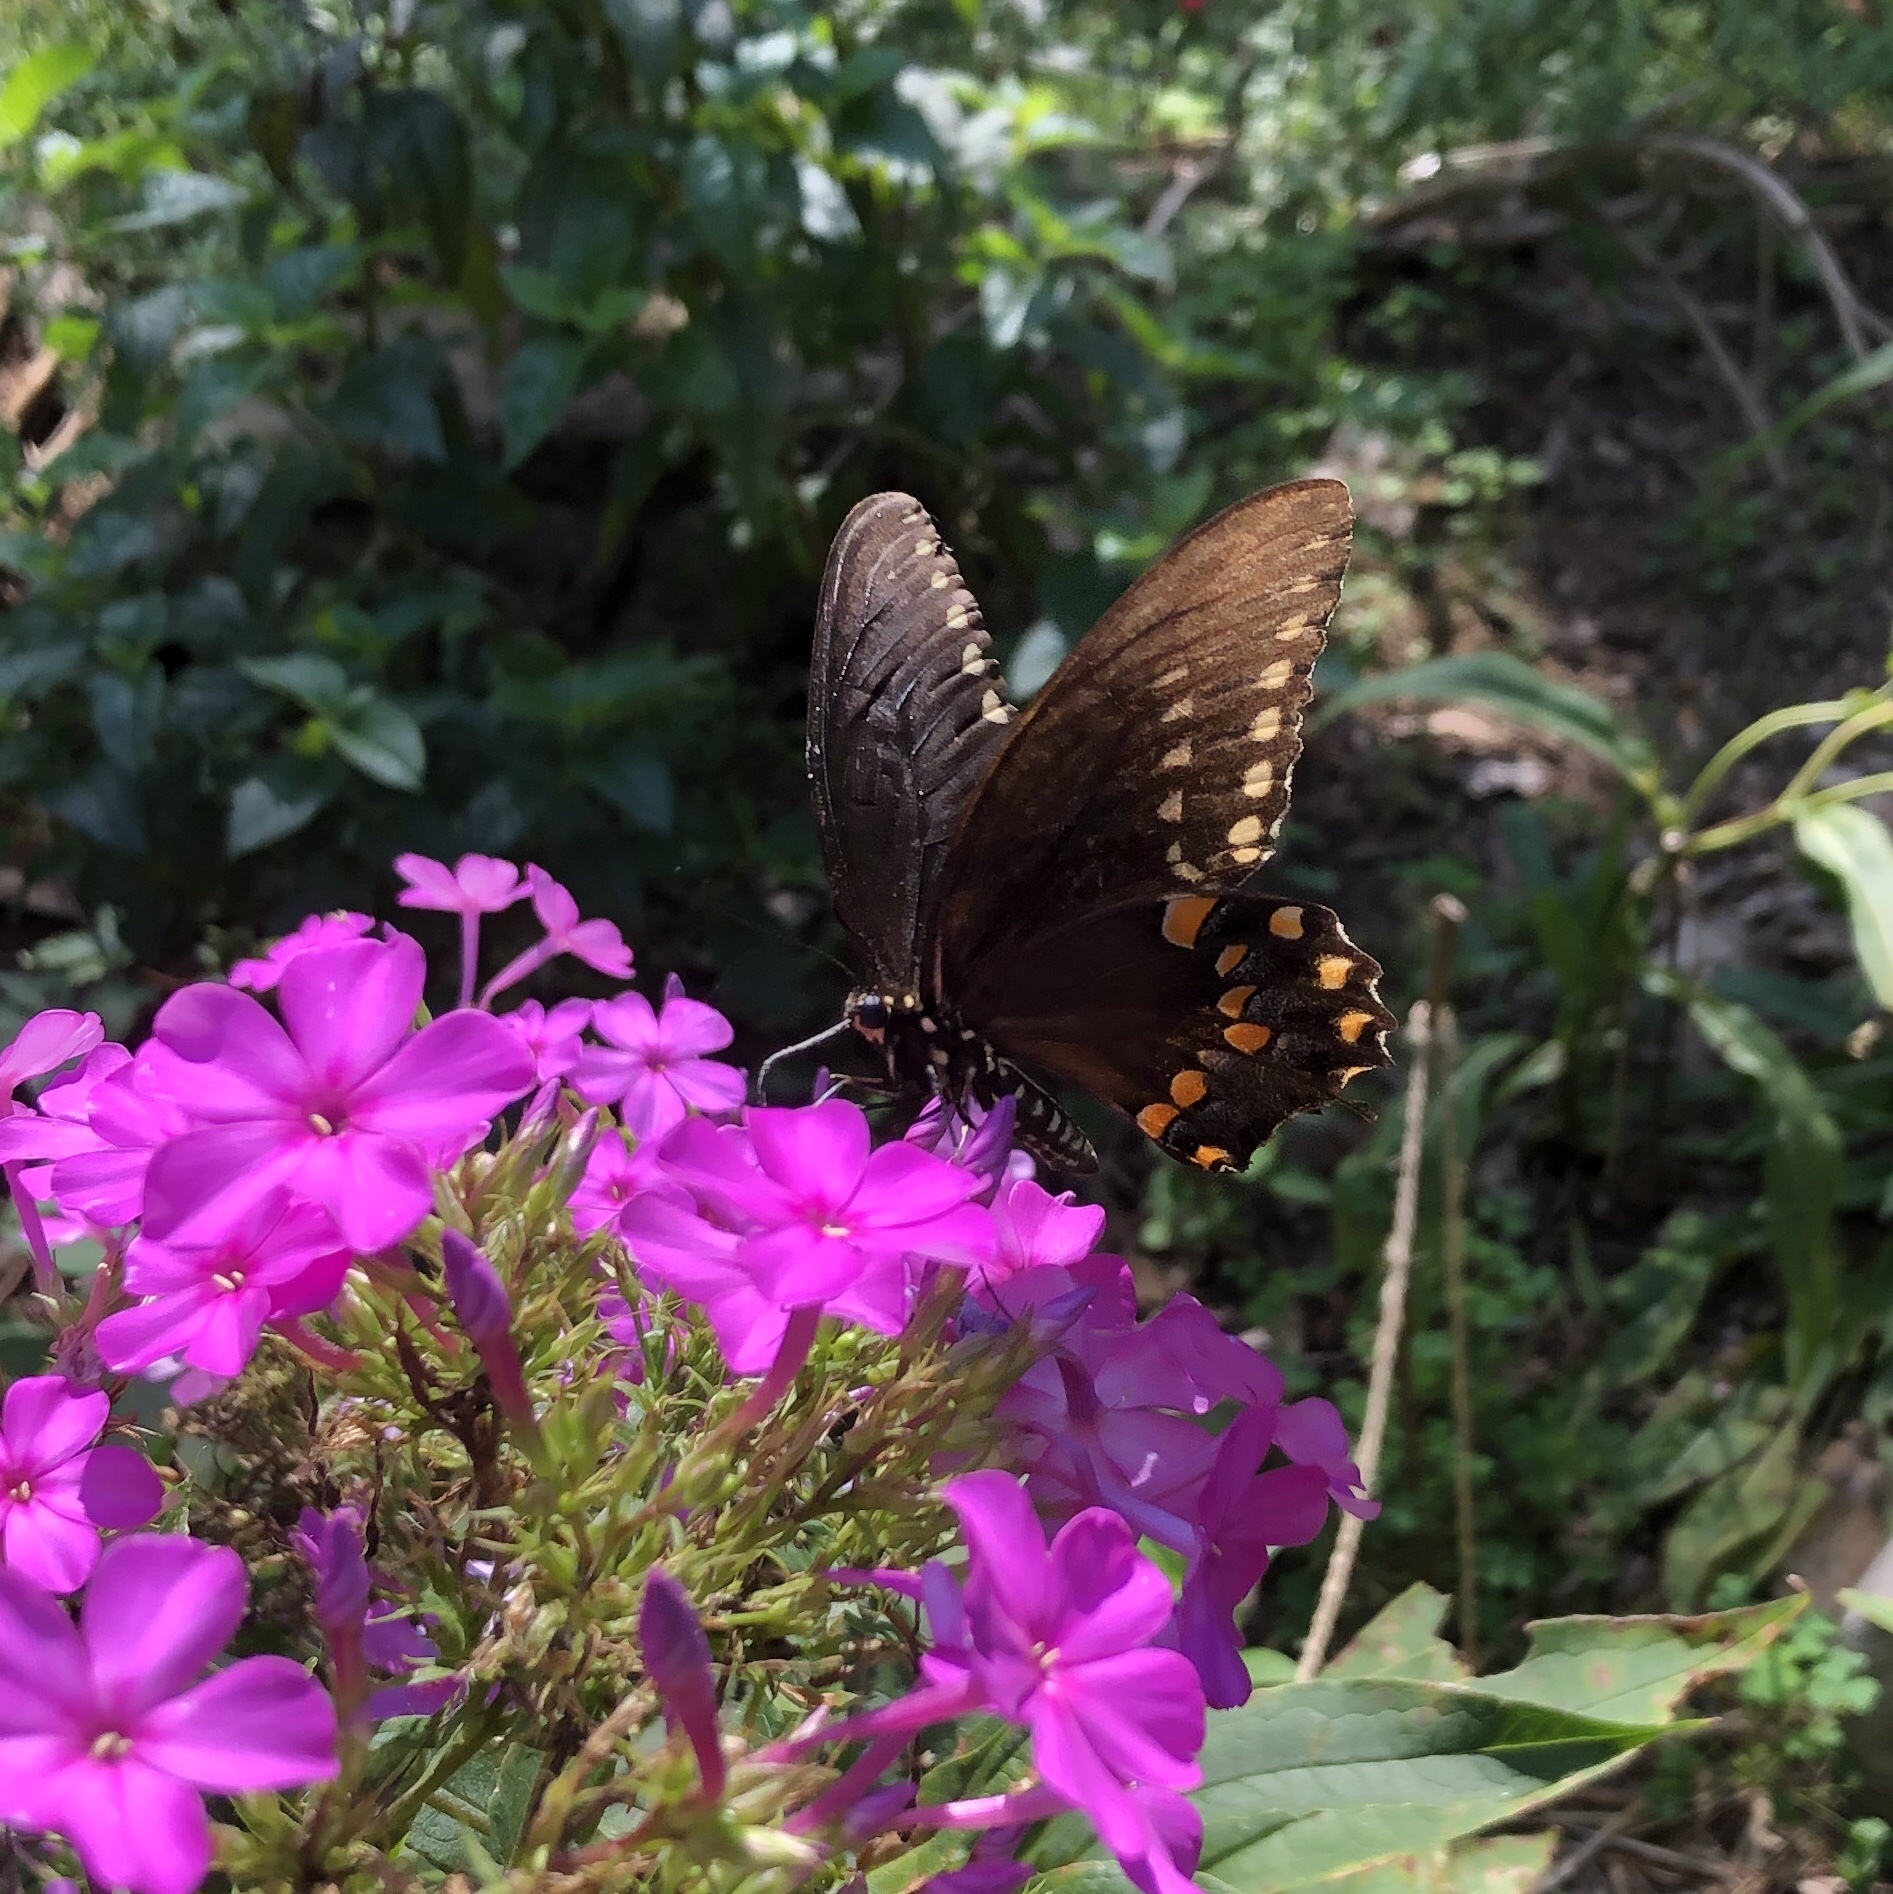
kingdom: Animalia
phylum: Arthropoda
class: Insecta
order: Lepidoptera
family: Papilionidae
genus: Papilio
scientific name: Papilio troilus
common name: Spicebush swallowtail
